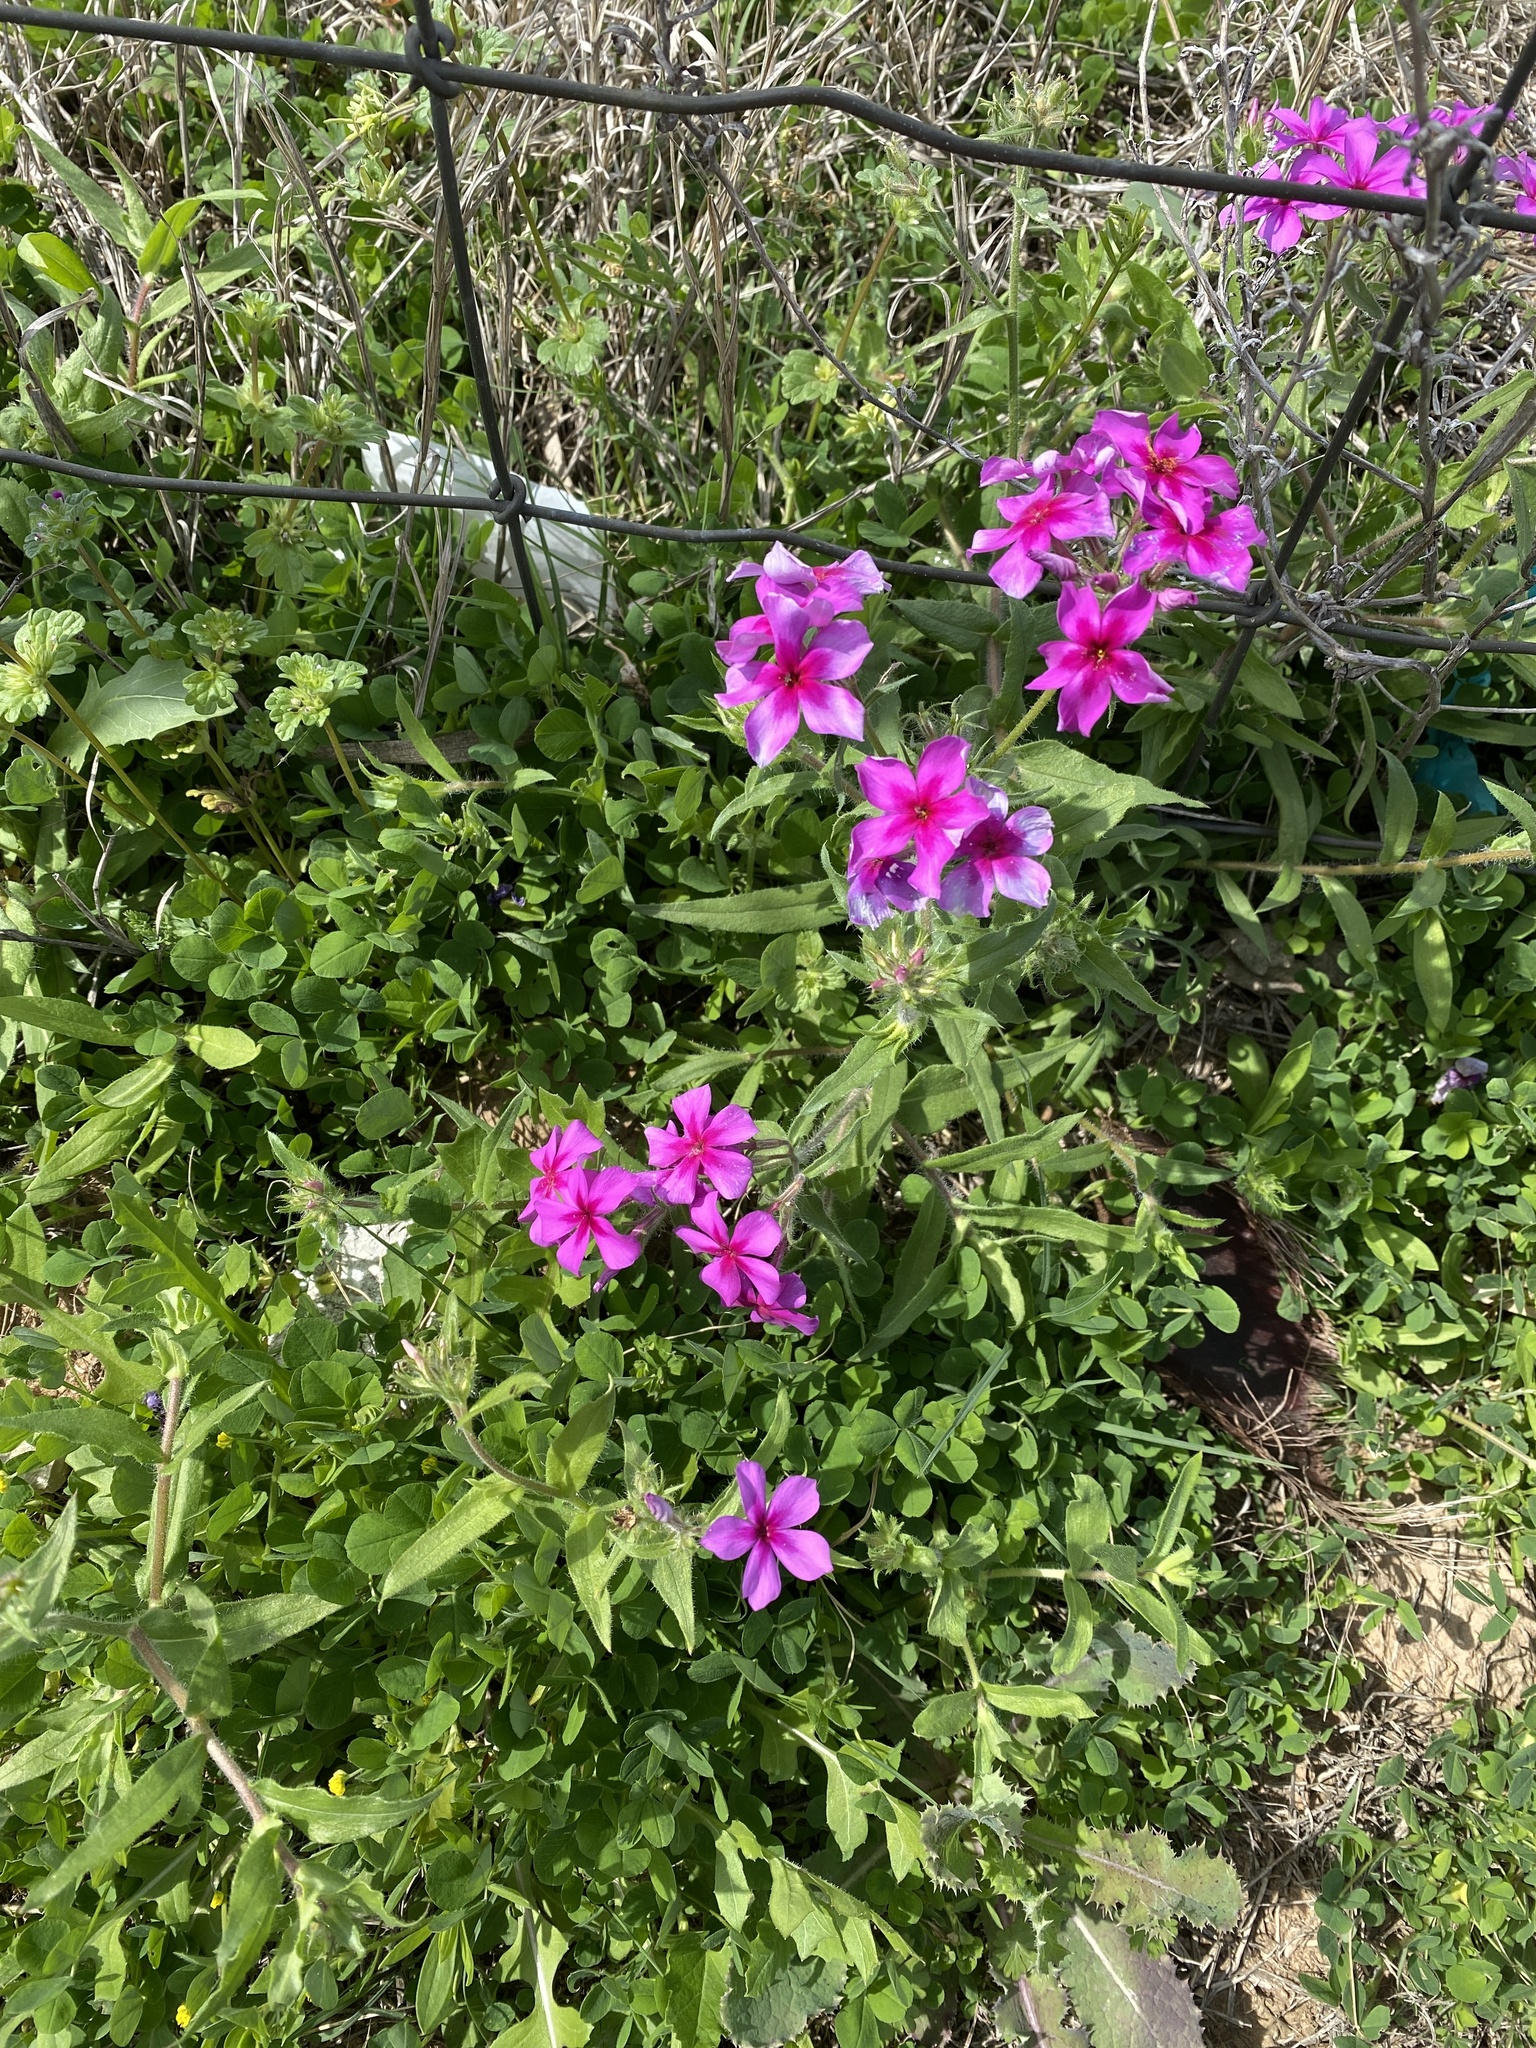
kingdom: Plantae
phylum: Tracheophyta
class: Magnoliopsida
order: Ericales
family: Polemoniaceae
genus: Phlox
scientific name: Phlox drummondii
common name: Drummond's phlox
